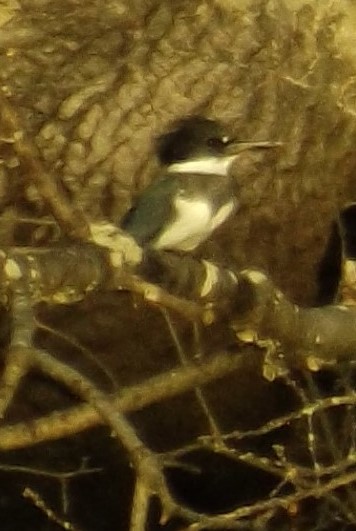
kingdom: Animalia
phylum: Chordata
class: Aves
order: Coraciiformes
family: Alcedinidae
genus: Megaceryle
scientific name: Megaceryle alcyon
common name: Belted kingfisher
